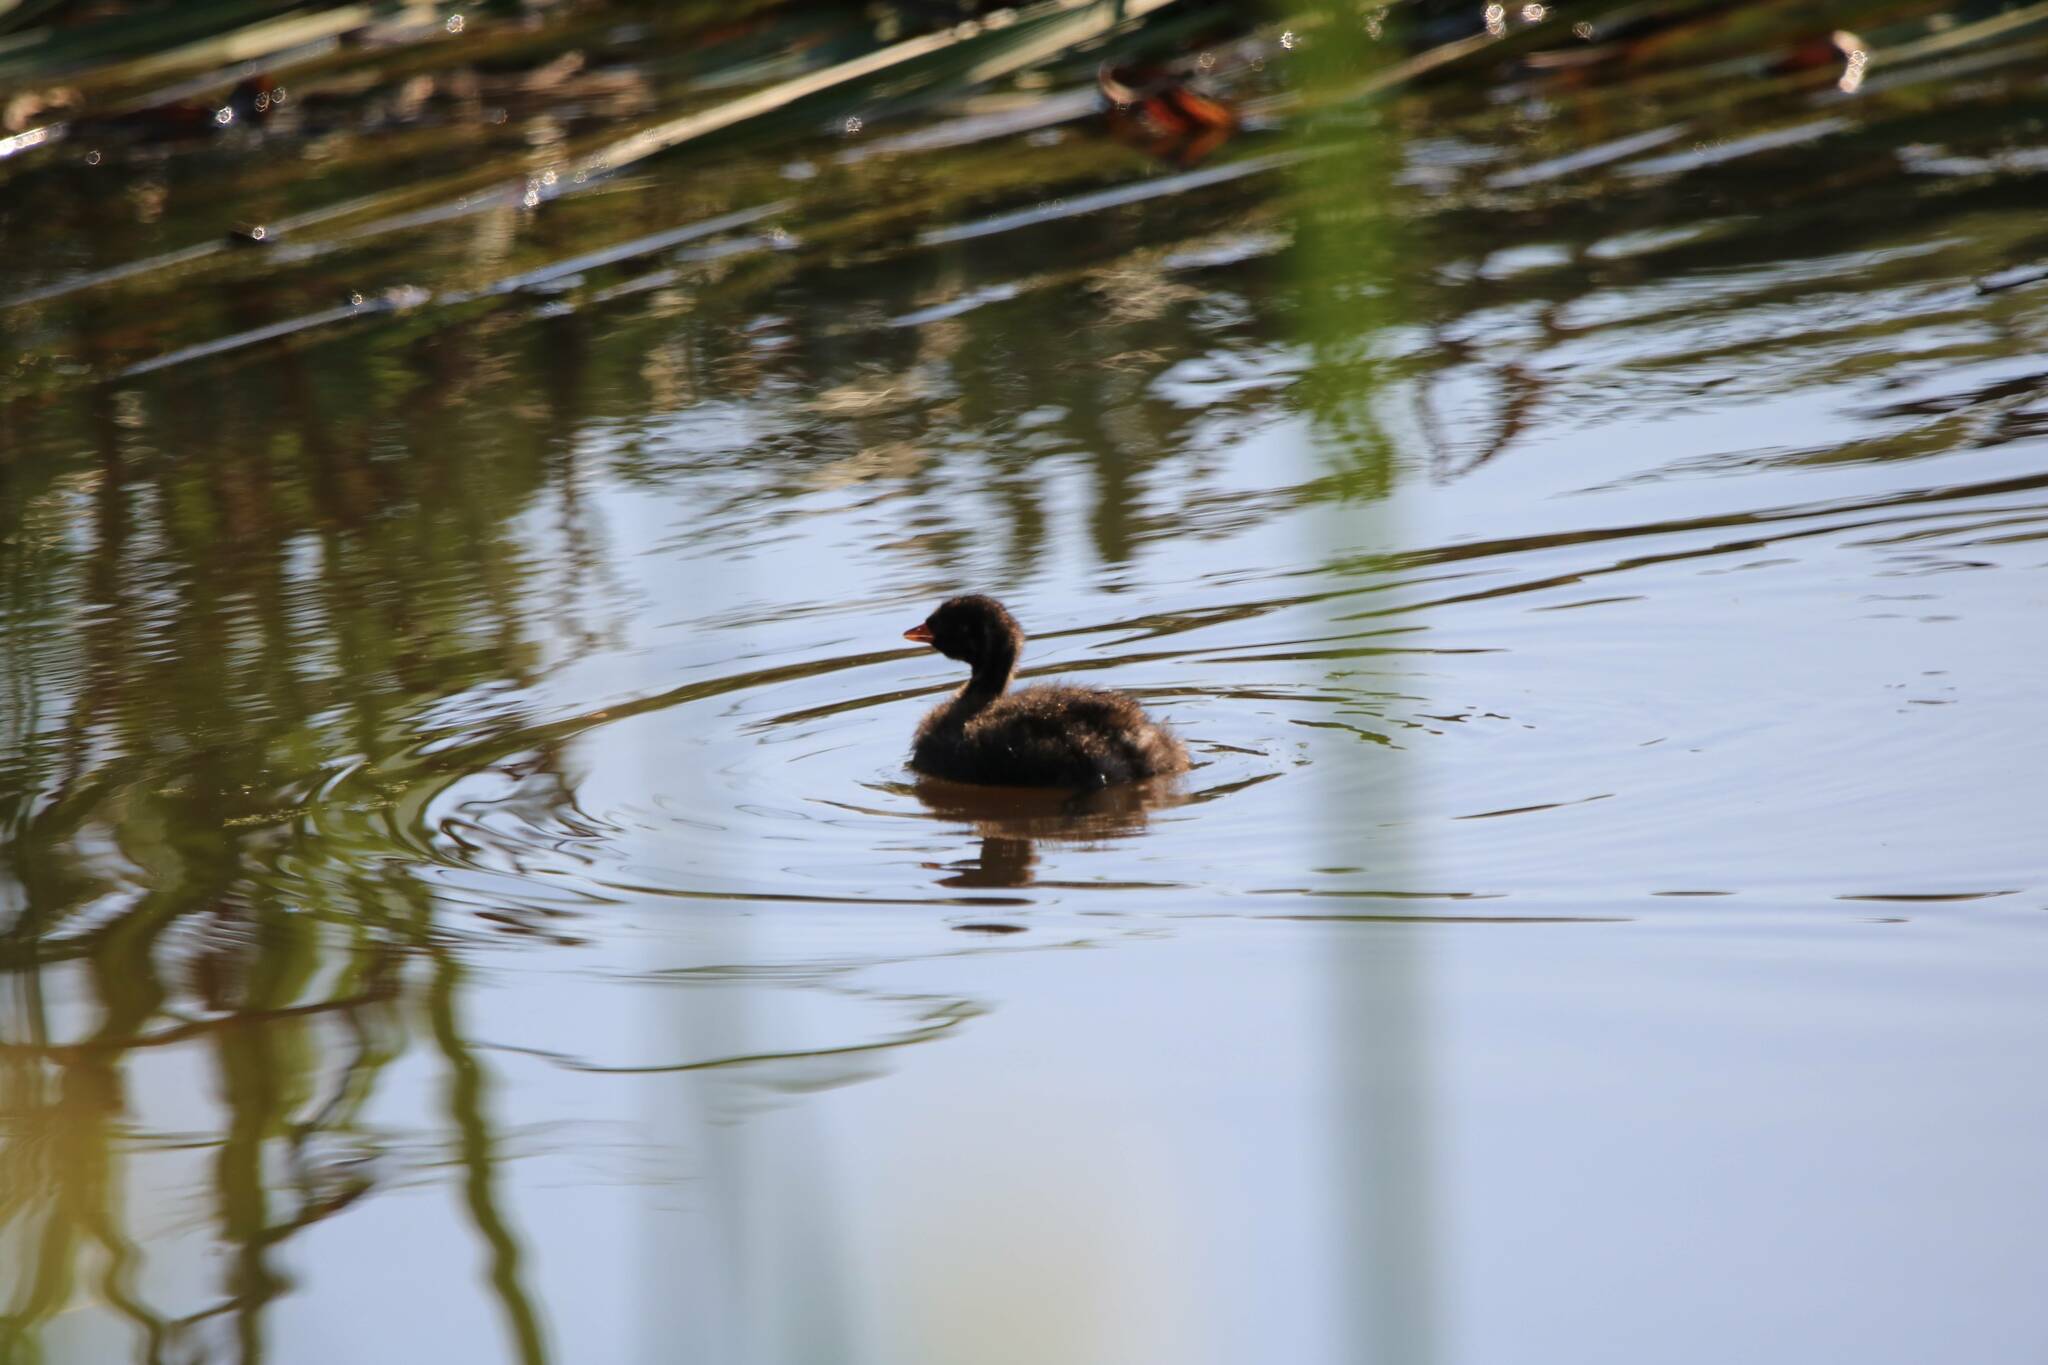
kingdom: Animalia
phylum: Chordata
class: Aves
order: Podicipediformes
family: Podicipedidae
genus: Tachybaptus
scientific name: Tachybaptus ruficollis
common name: Little grebe
